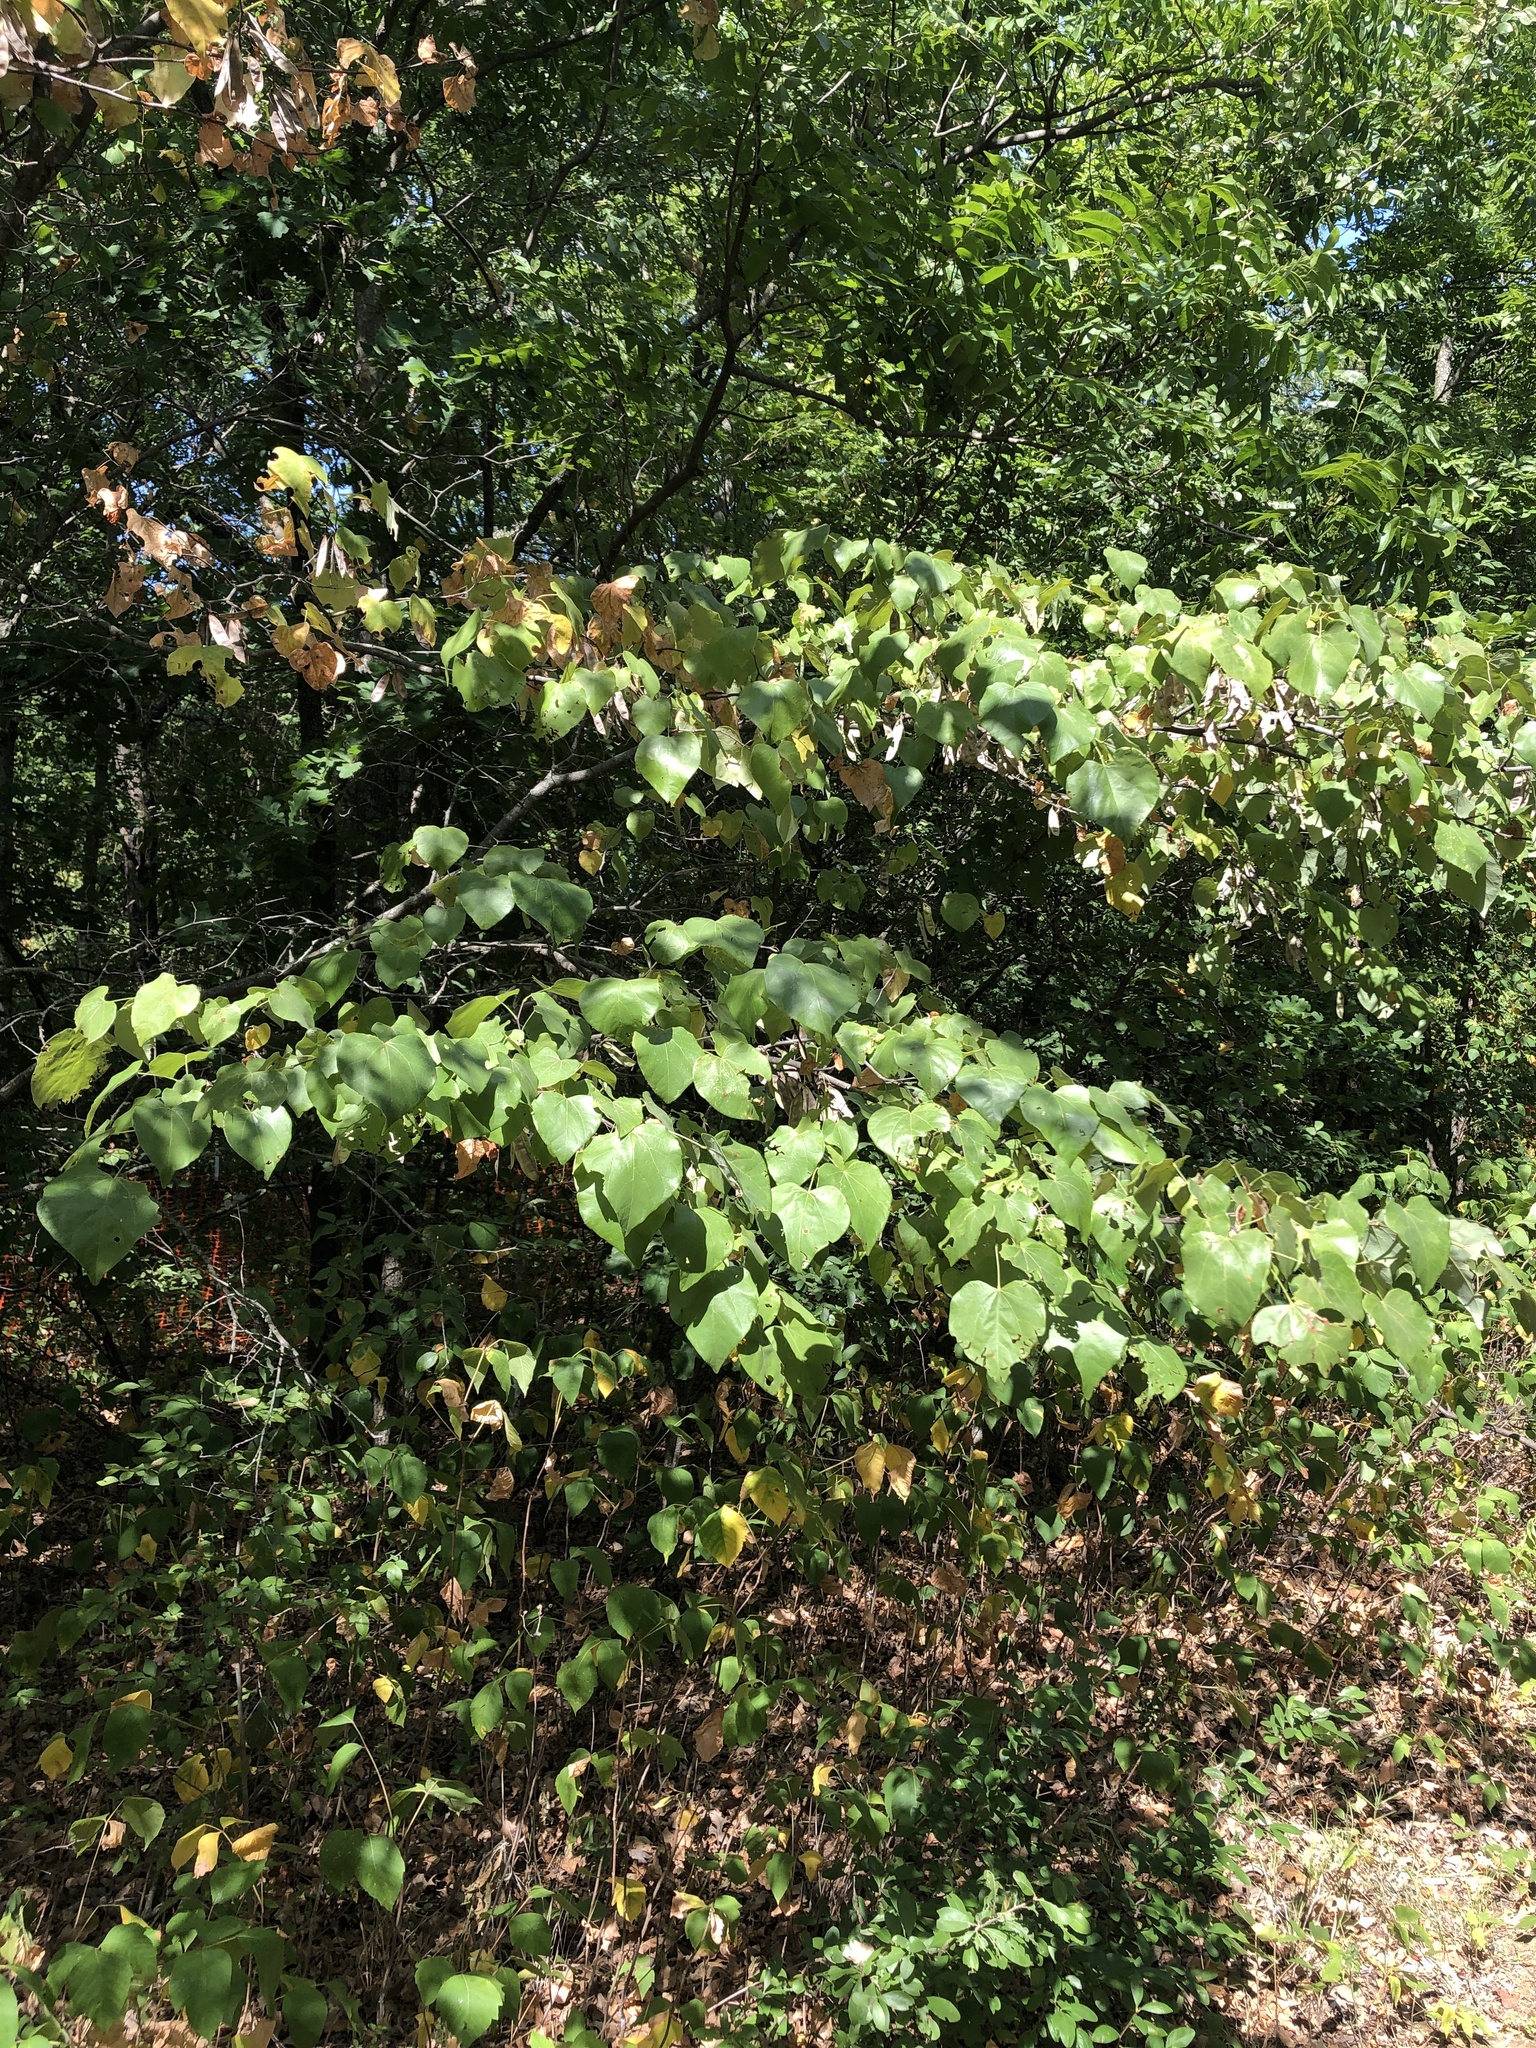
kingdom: Plantae
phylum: Tracheophyta
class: Magnoliopsida
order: Fabales
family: Fabaceae
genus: Cercis
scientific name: Cercis canadensis
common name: Eastern redbud
